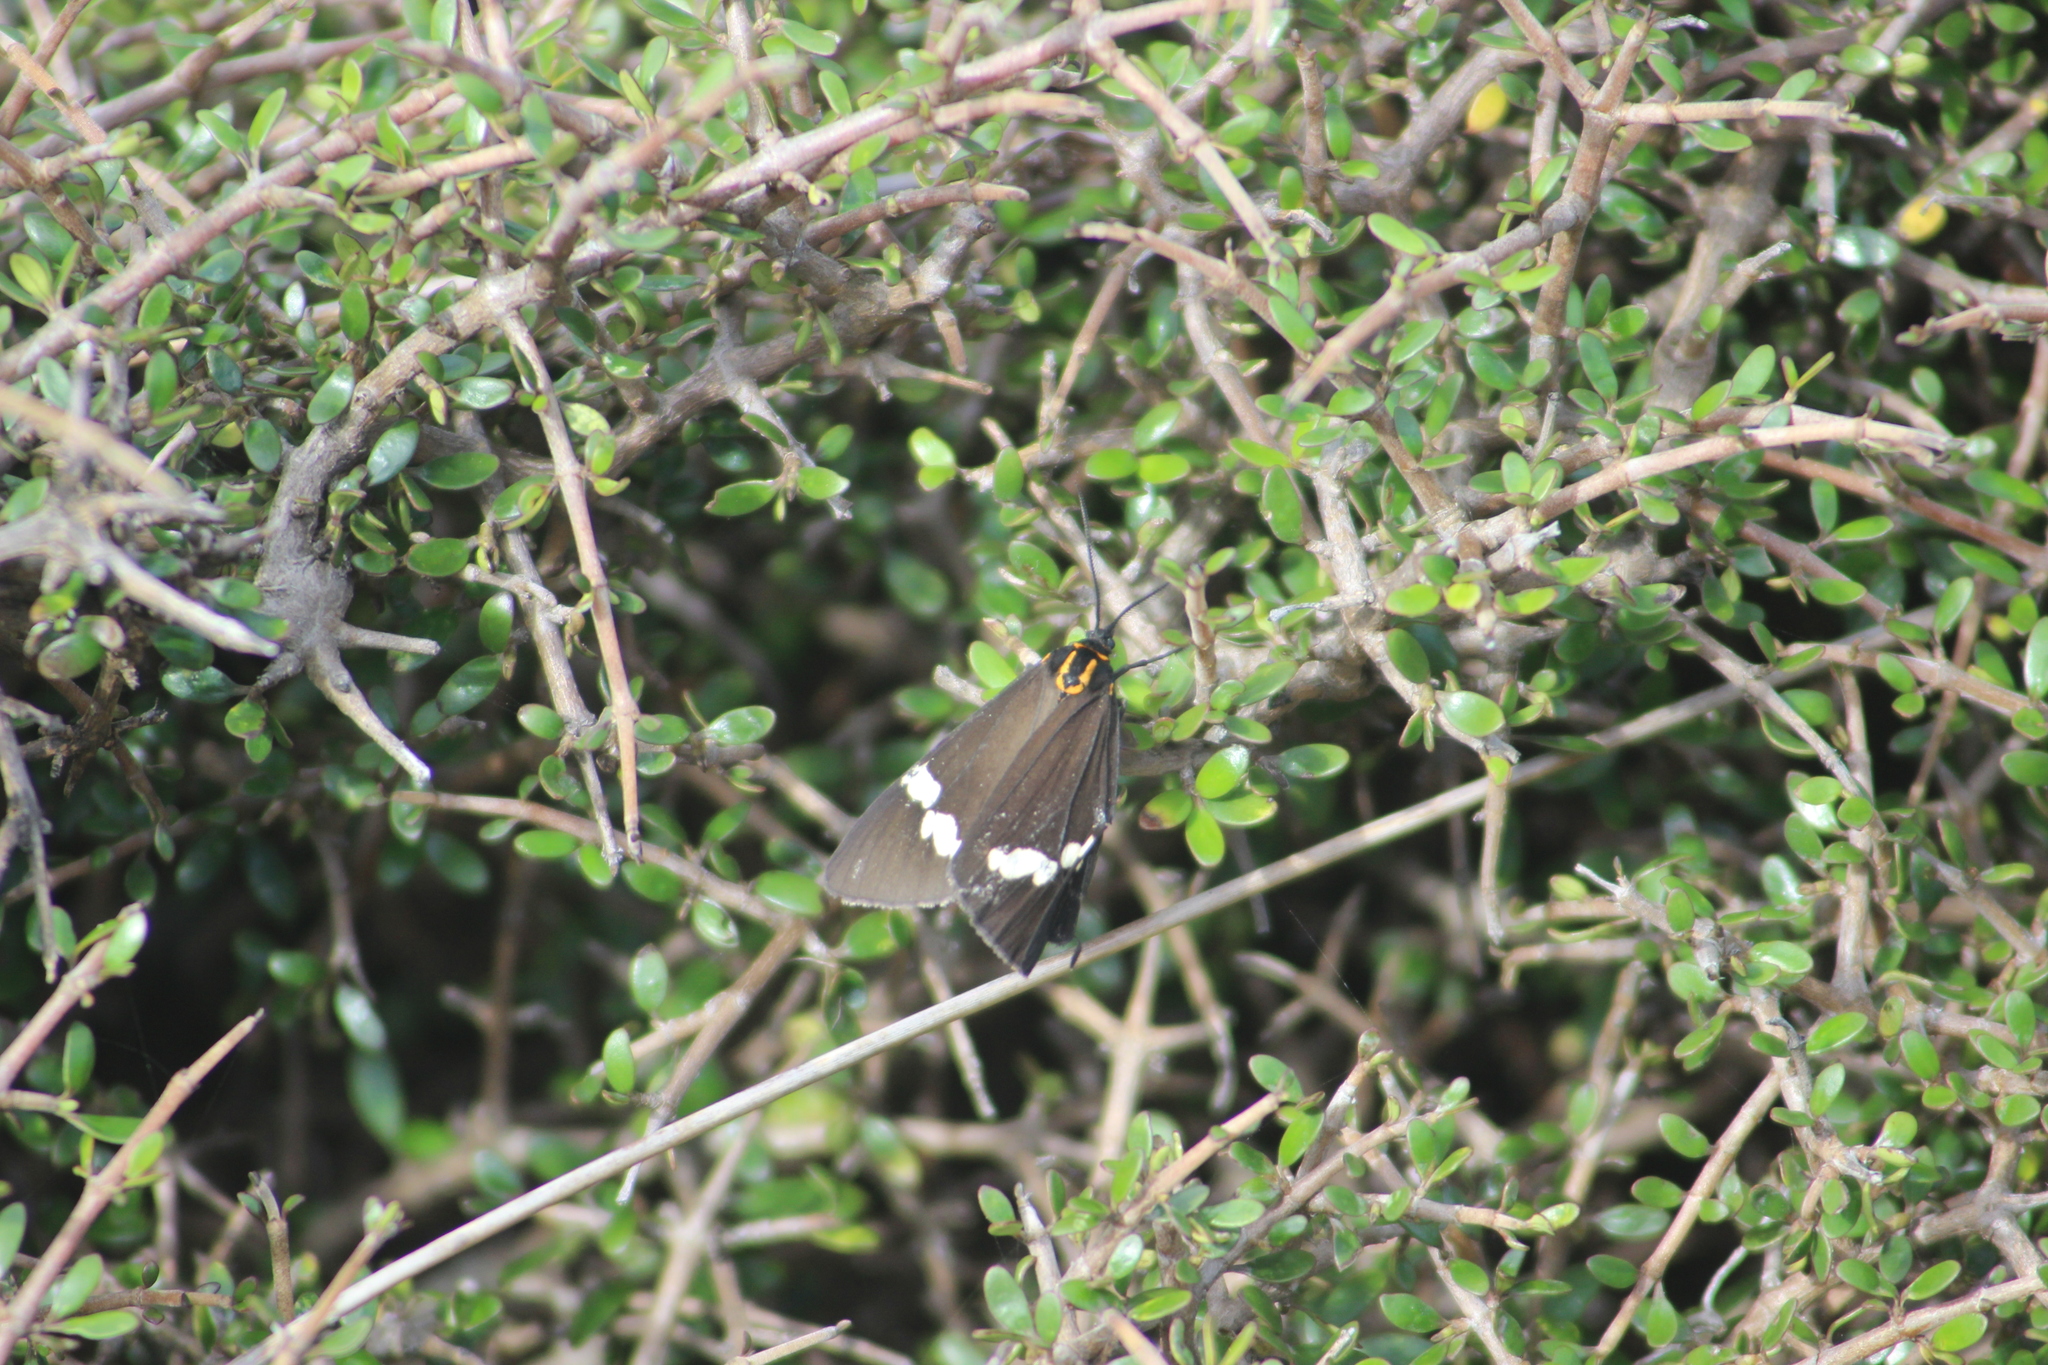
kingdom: Plantae
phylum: Tracheophyta
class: Magnoliopsida
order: Gentianales
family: Rubiaceae
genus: Coprosma
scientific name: Coprosma propinqua
